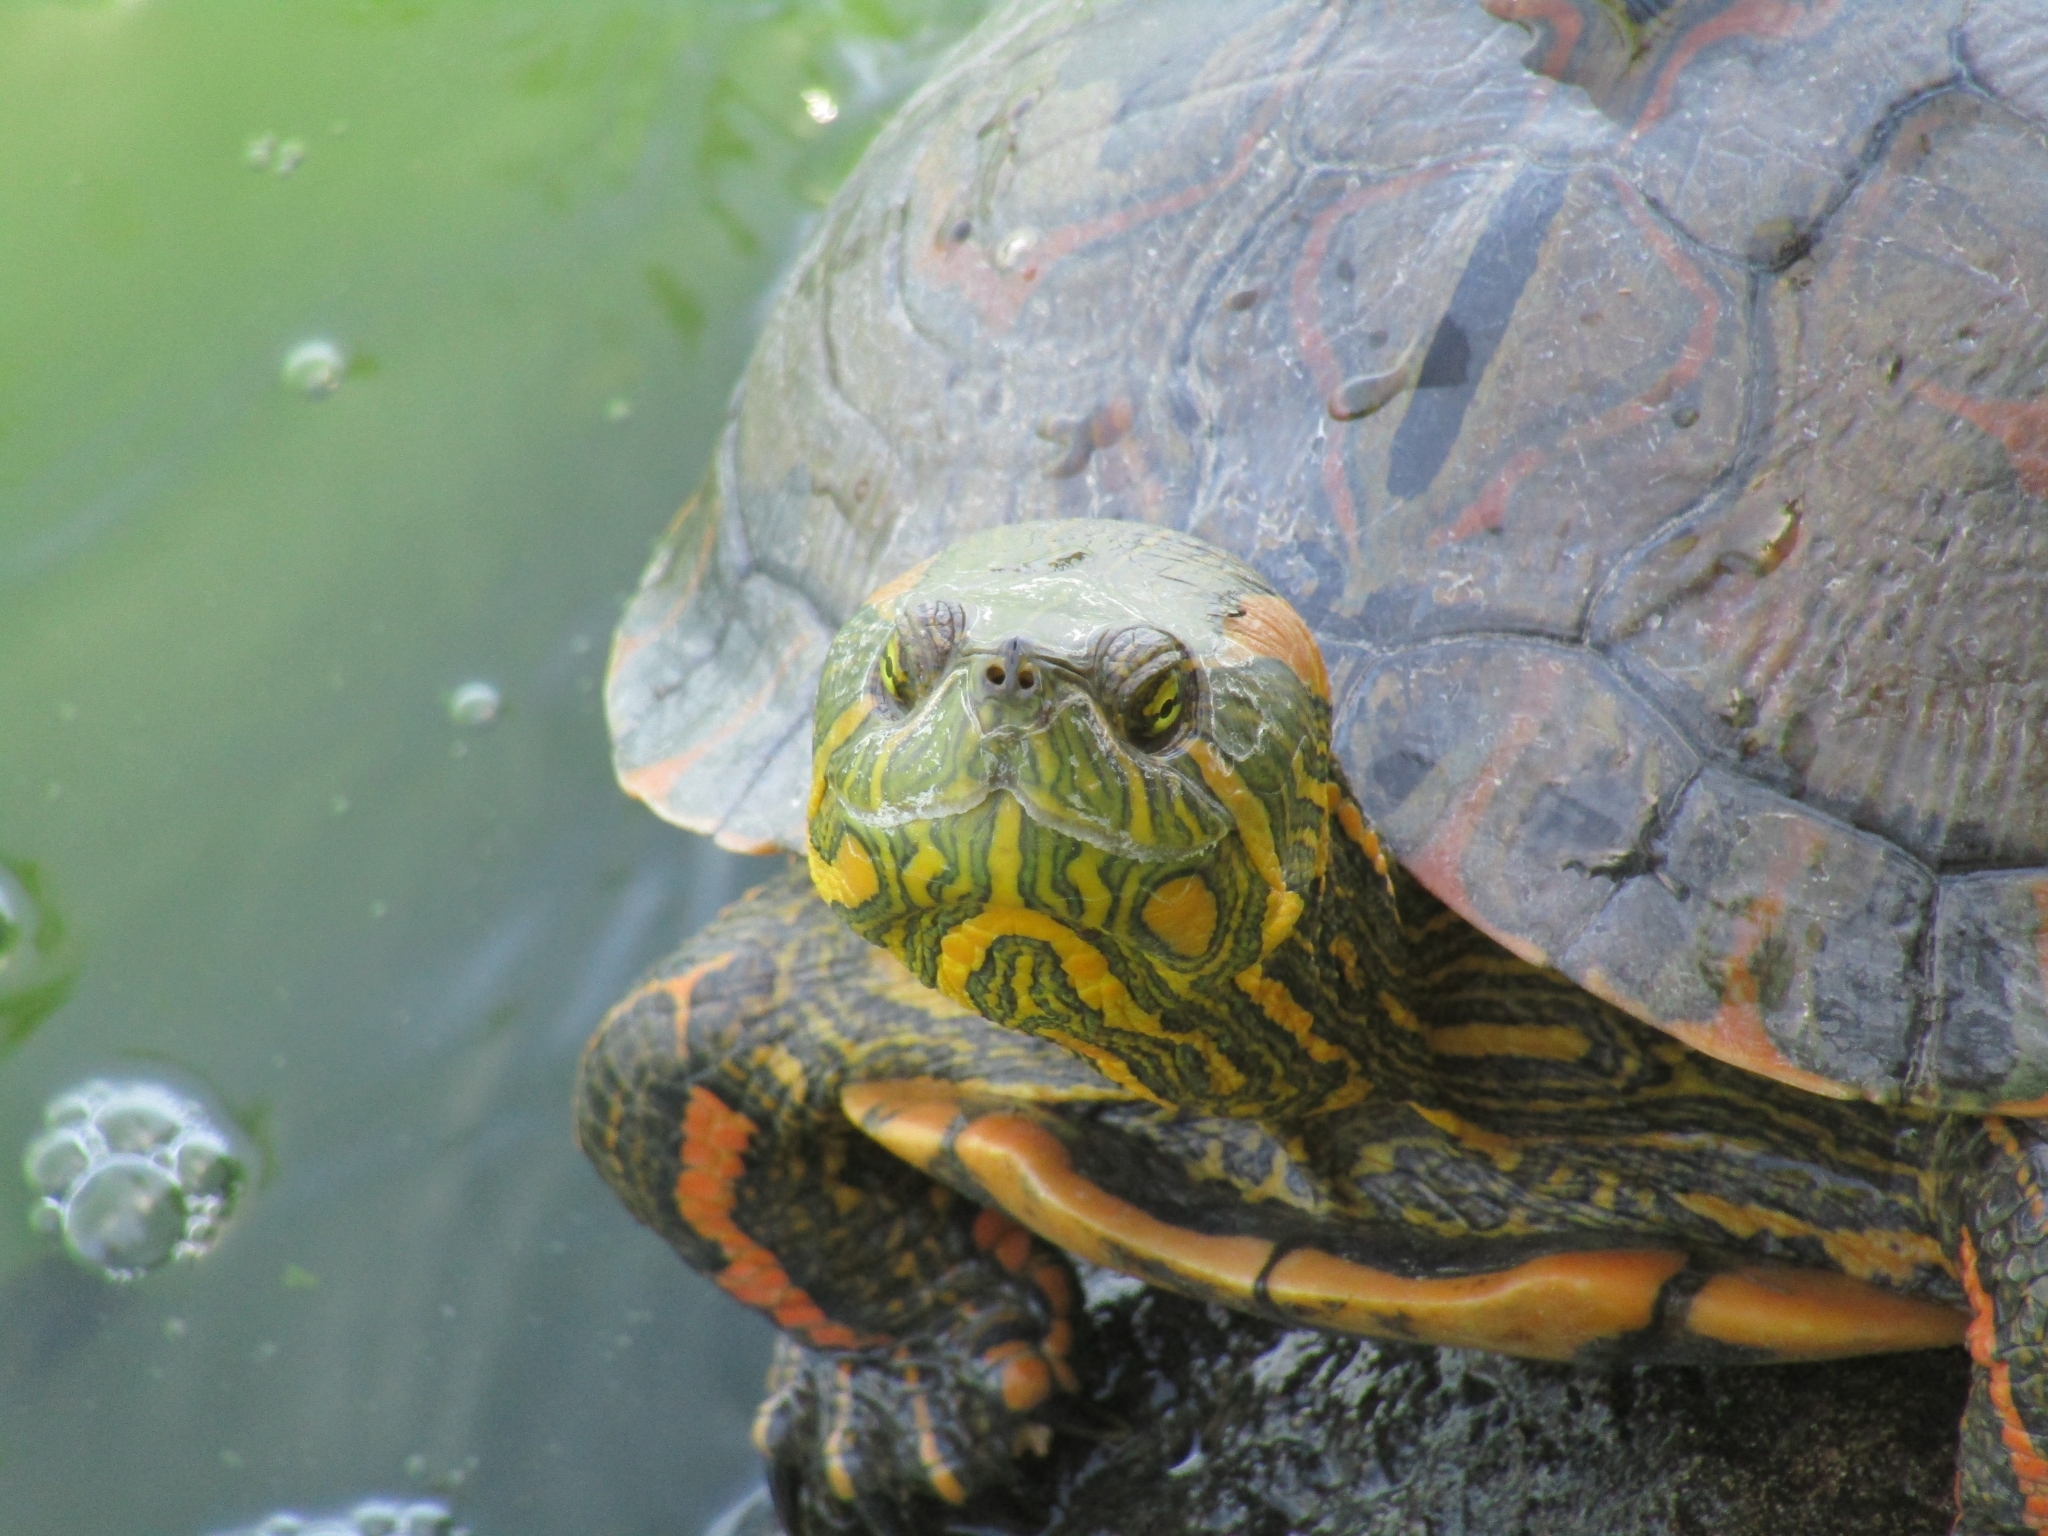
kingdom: Animalia
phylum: Chordata
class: Testudines
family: Emydidae
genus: Trachemys
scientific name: Trachemys dorbigni
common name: Black-bellied slider
